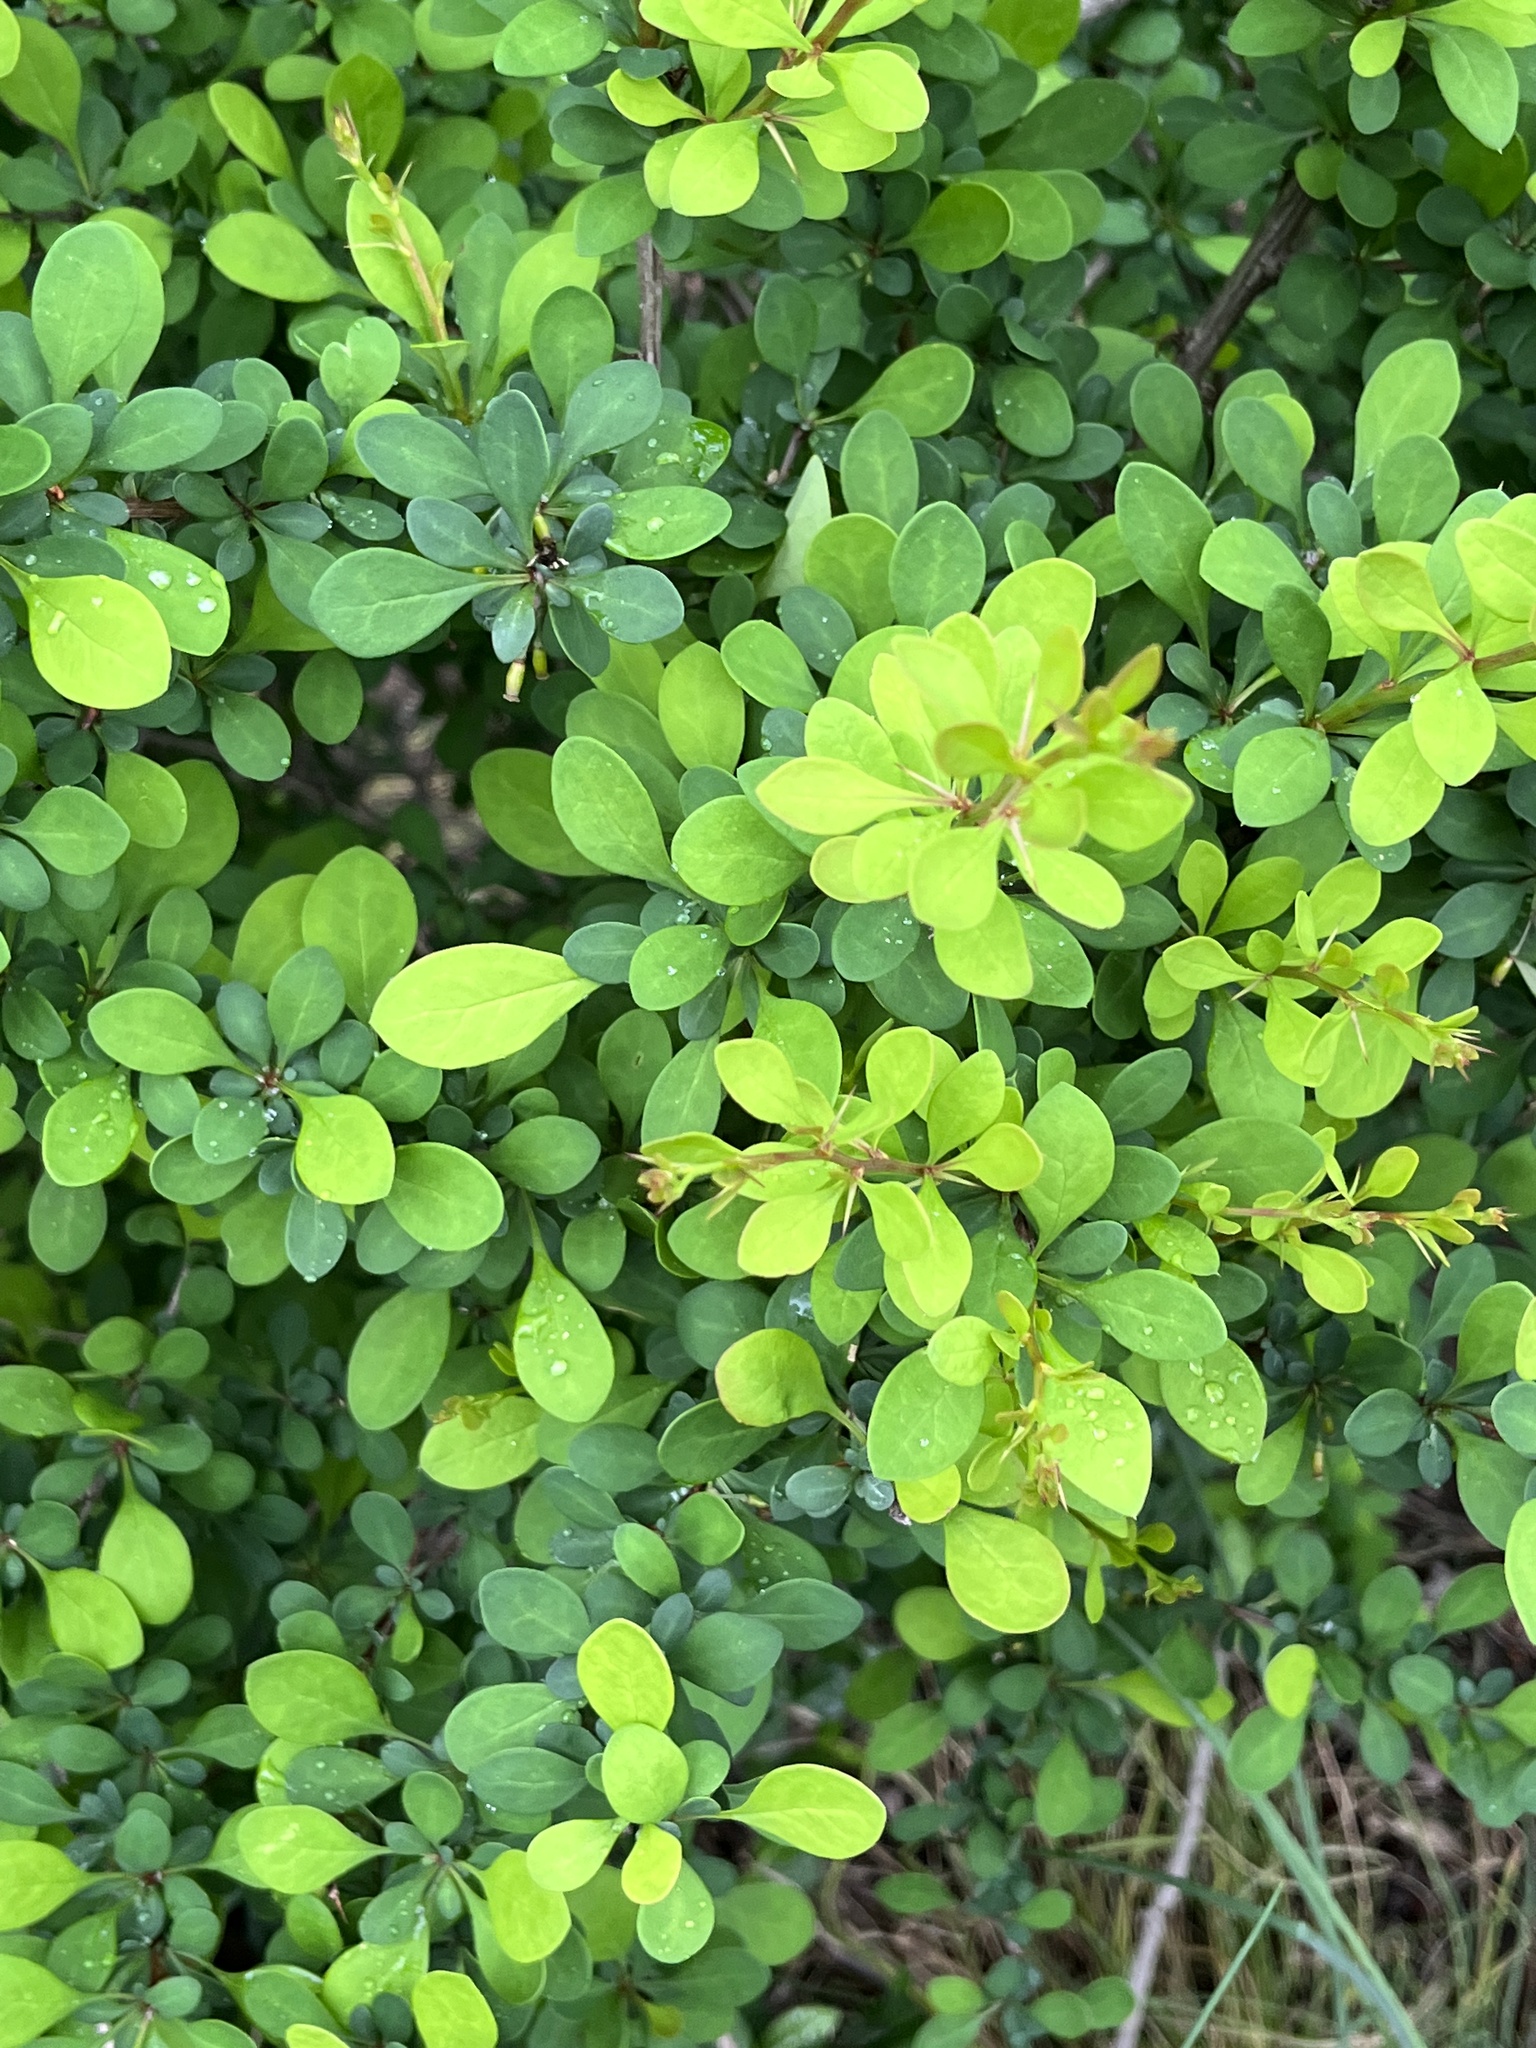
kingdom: Plantae
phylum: Tracheophyta
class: Magnoliopsida
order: Ranunculales
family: Berberidaceae
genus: Berberis
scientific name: Berberis thunbergii
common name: Japanese barberry
